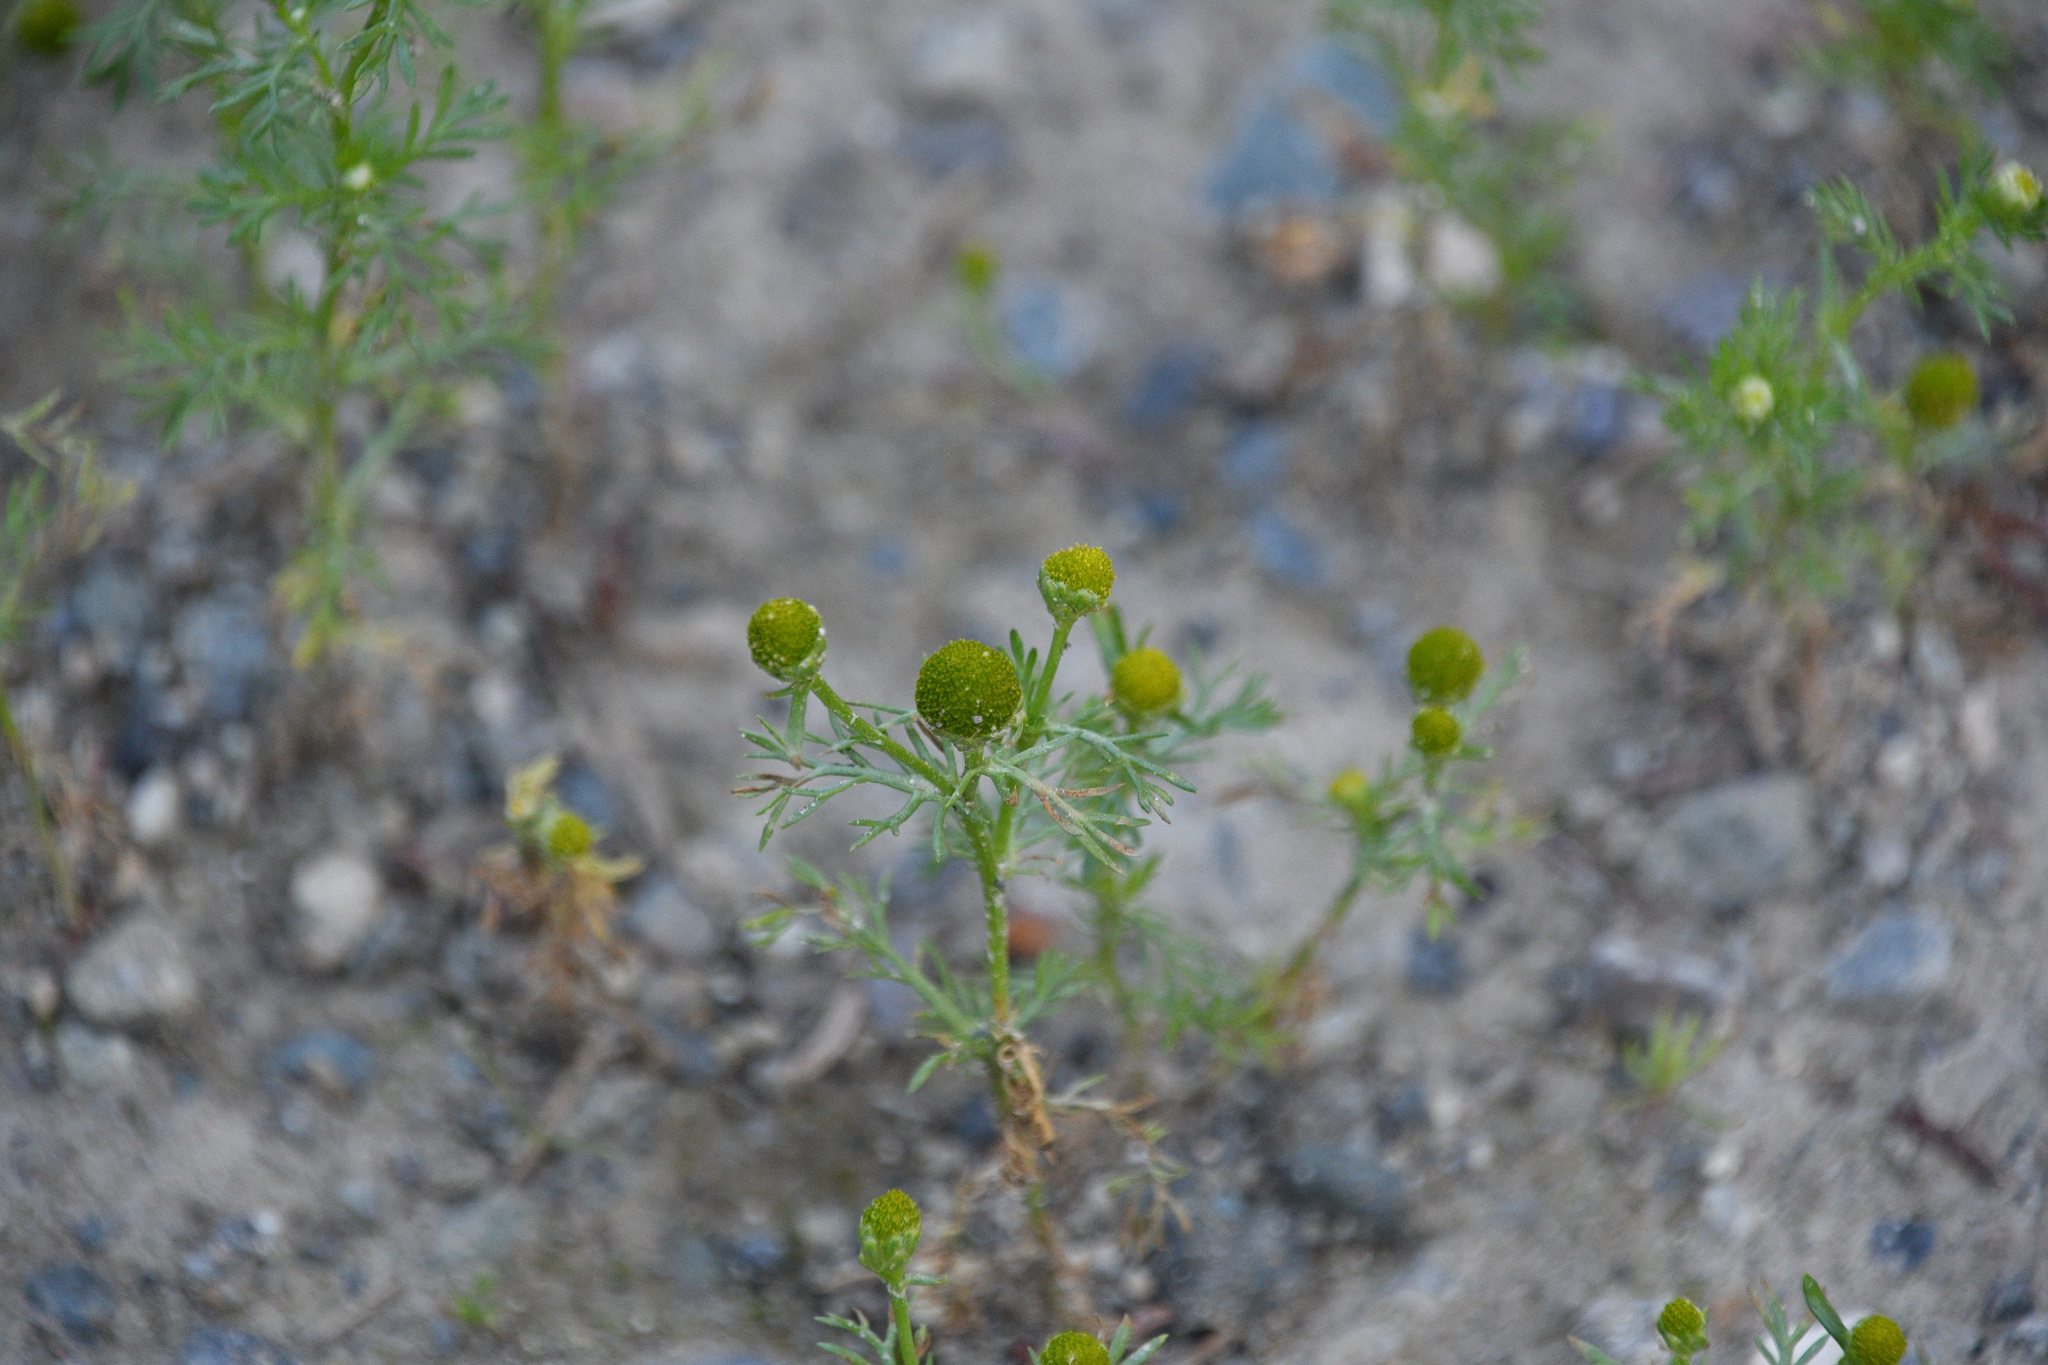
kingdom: Plantae
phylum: Tracheophyta
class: Magnoliopsida
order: Asterales
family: Asteraceae
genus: Matricaria
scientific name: Matricaria discoidea
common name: Disc mayweed
